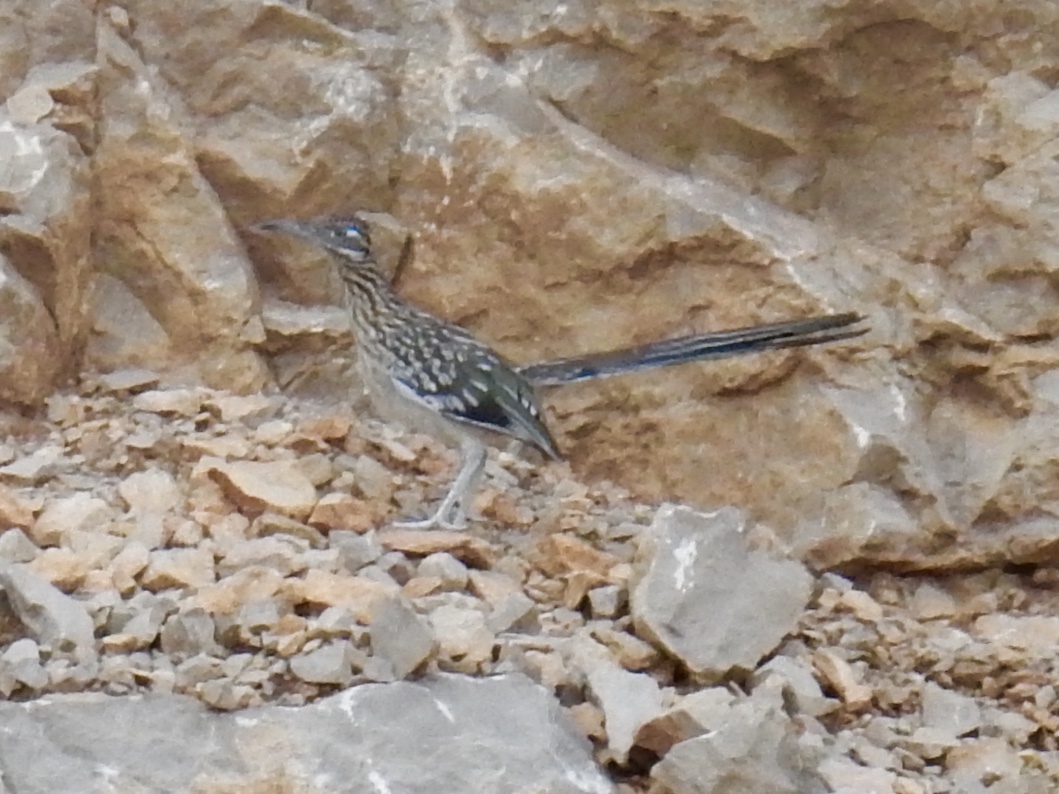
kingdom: Animalia
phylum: Chordata
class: Aves
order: Cuculiformes
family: Cuculidae
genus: Geococcyx
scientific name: Geococcyx californianus
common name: Greater roadrunner
